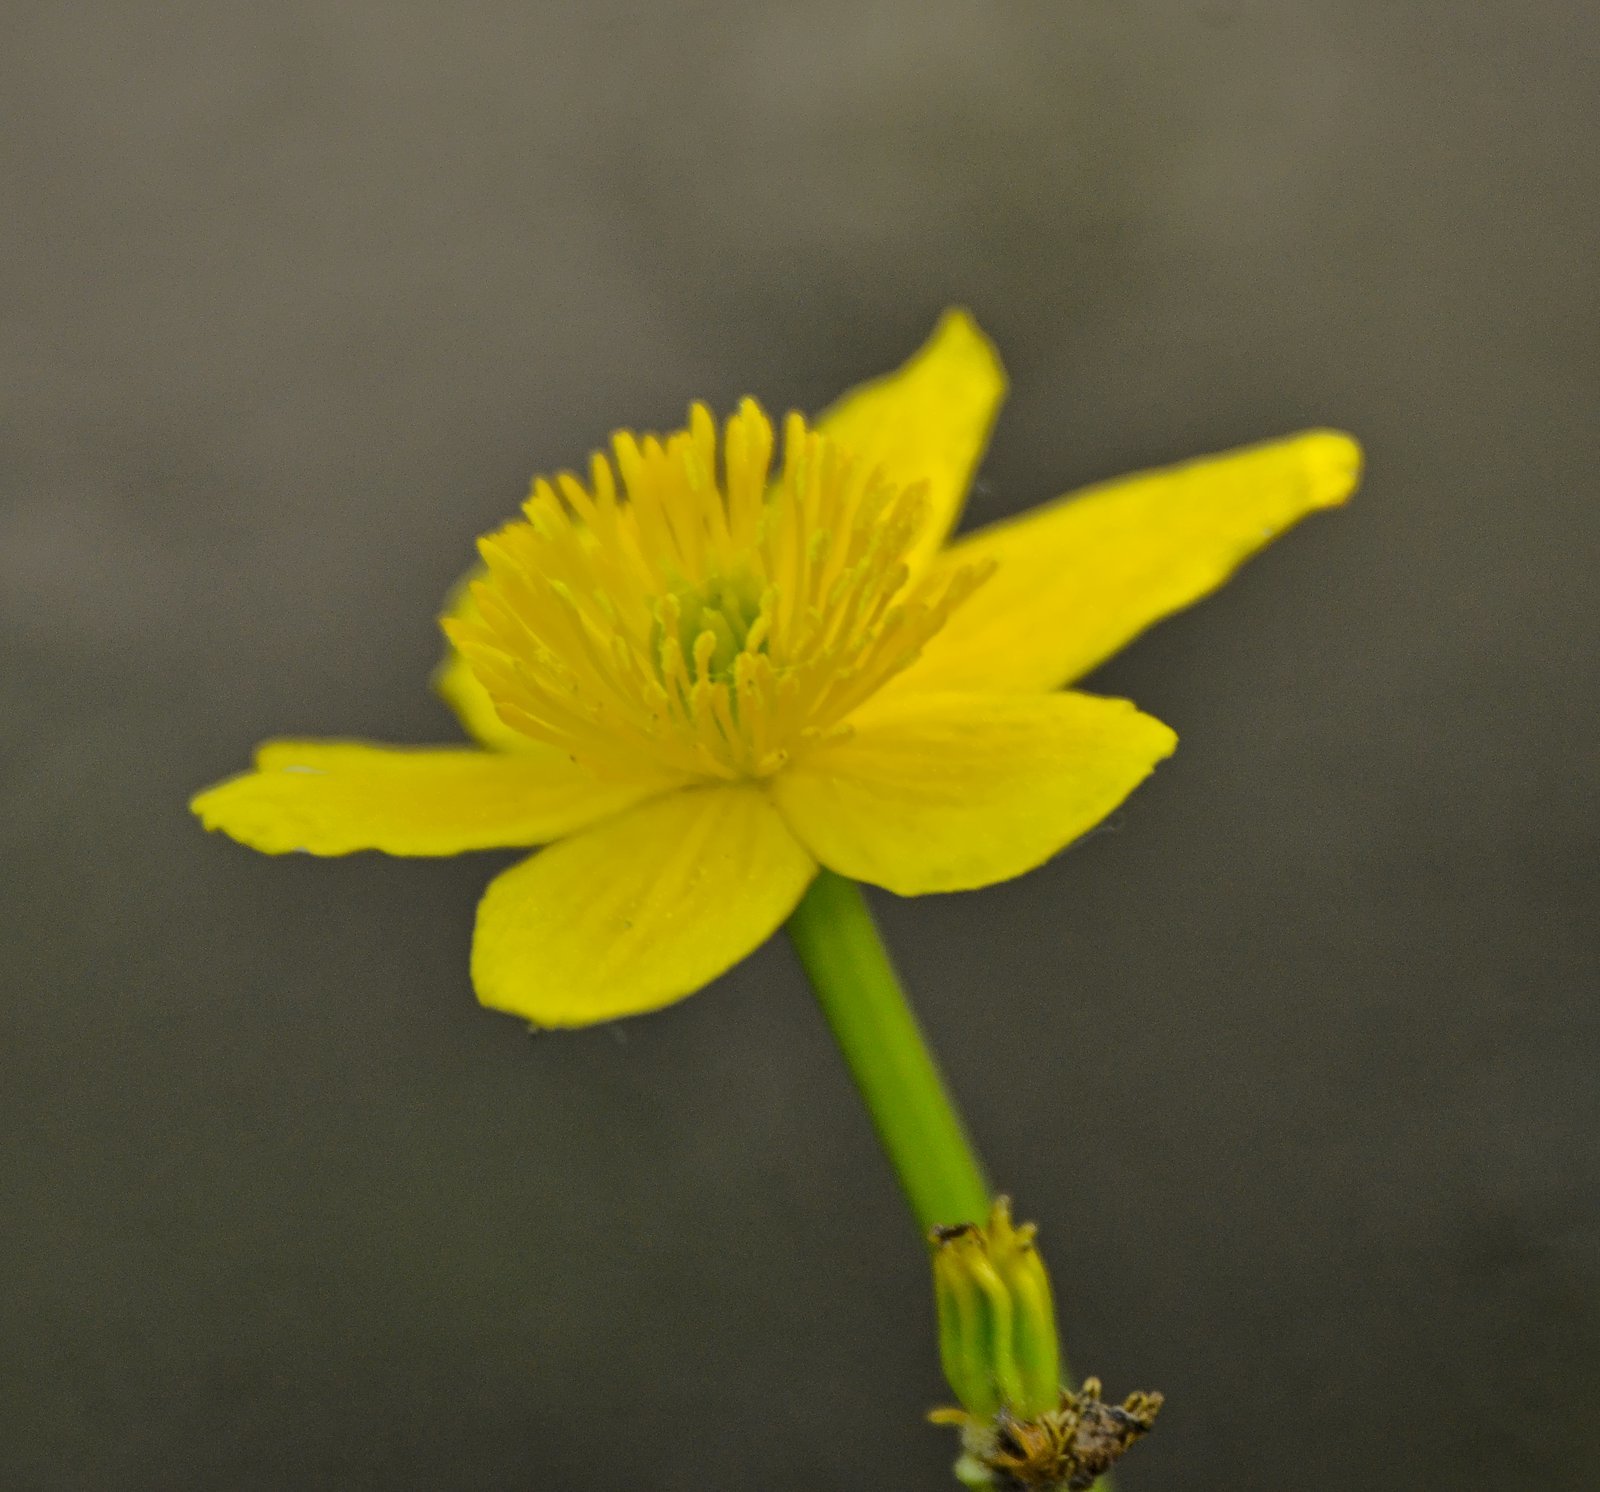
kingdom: Plantae
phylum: Tracheophyta
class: Magnoliopsida
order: Ranunculales
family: Ranunculaceae
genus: Caltha
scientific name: Caltha palustris
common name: Marsh marigold
